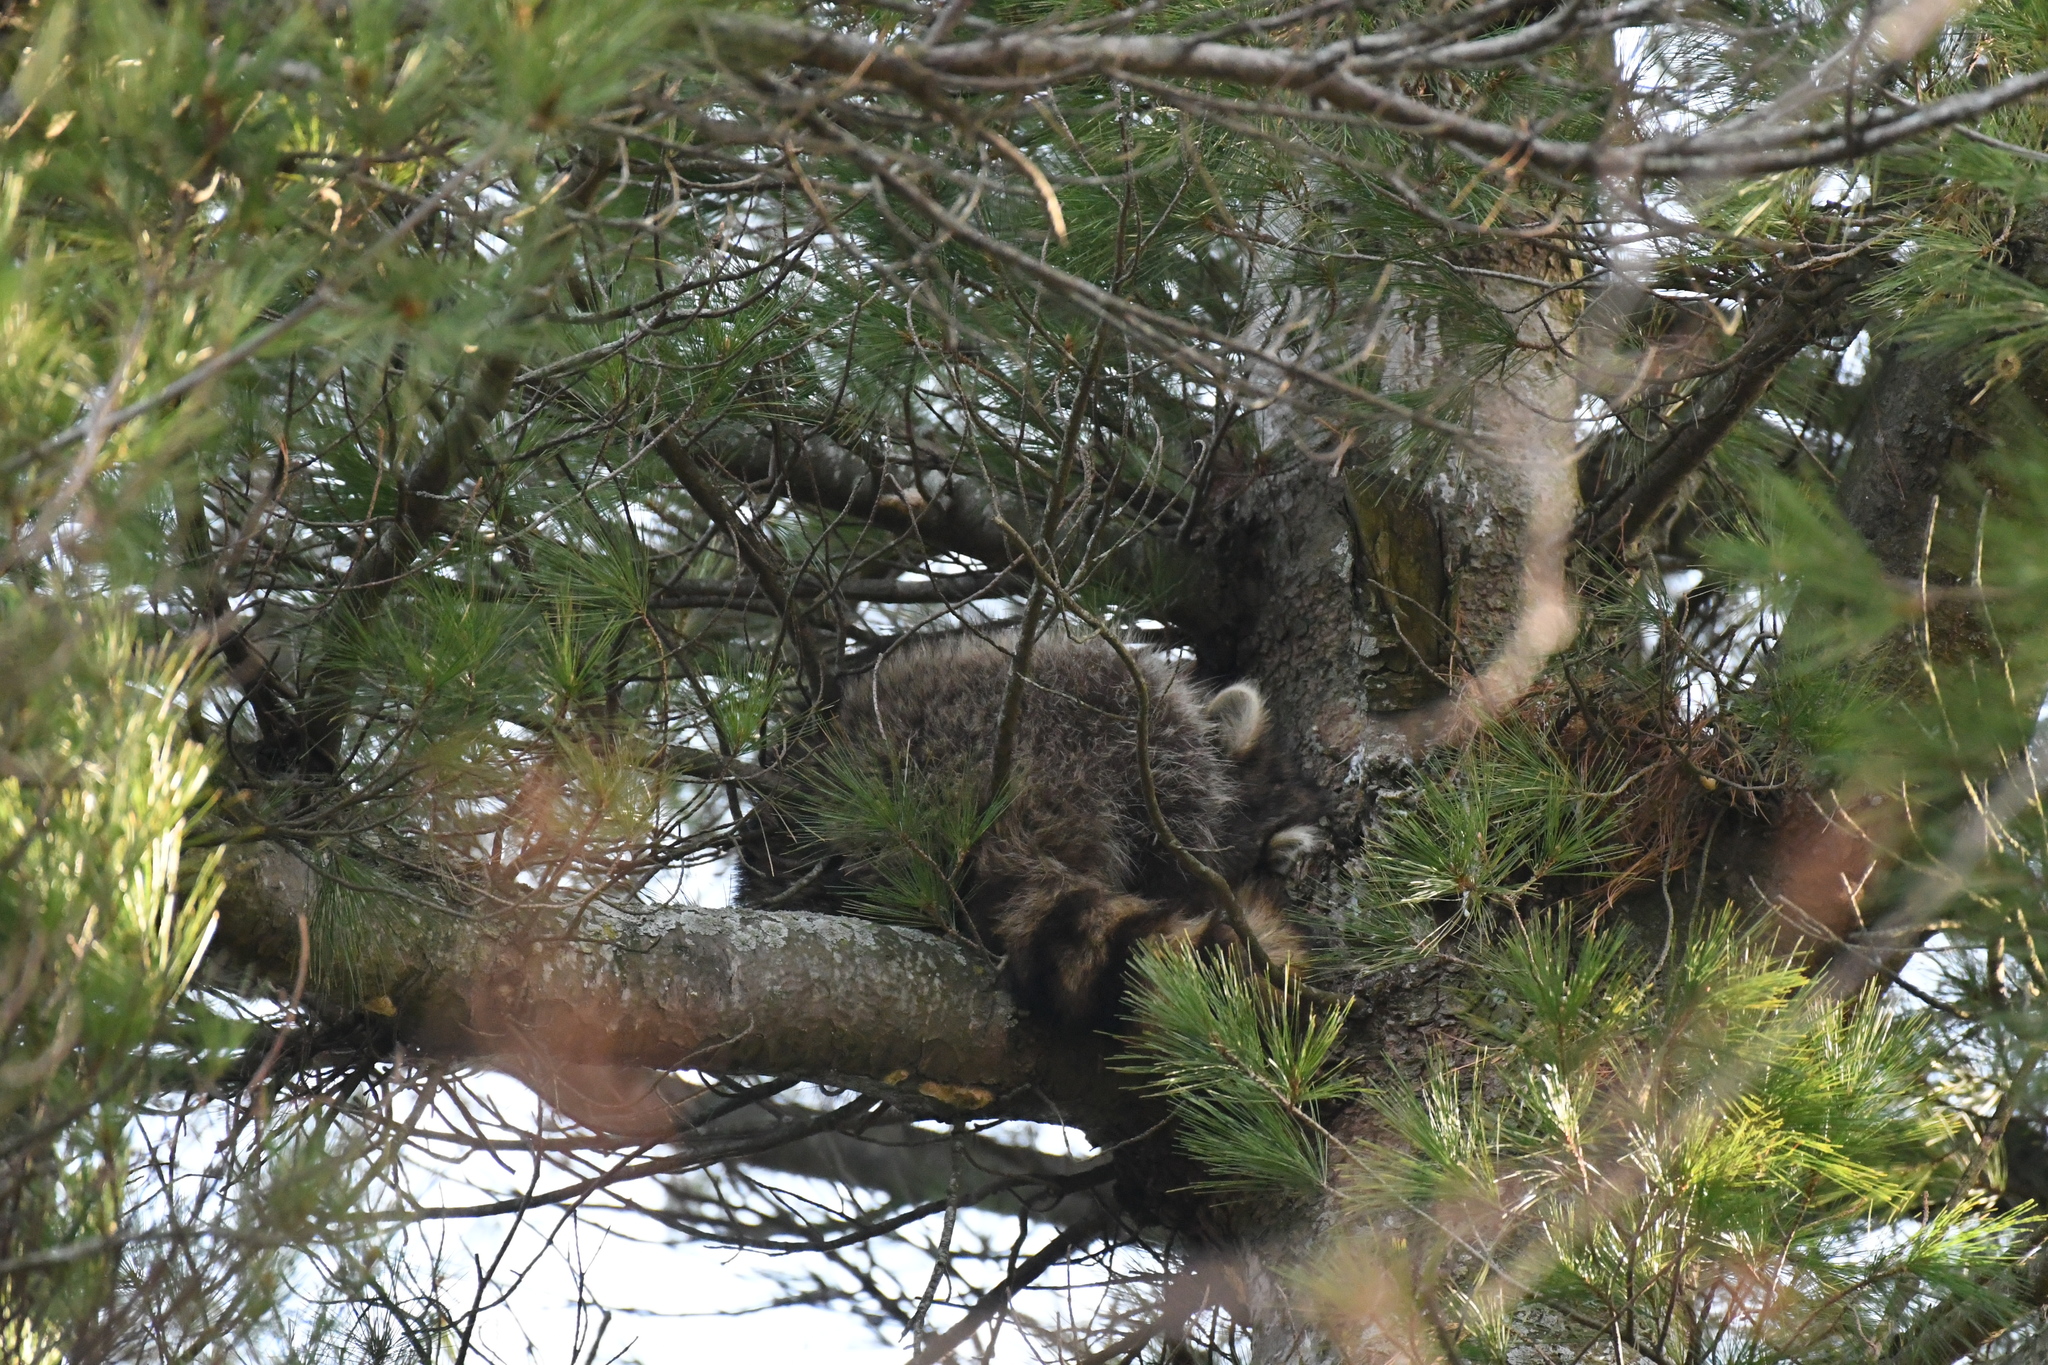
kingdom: Animalia
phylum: Chordata
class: Mammalia
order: Carnivora
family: Procyonidae
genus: Procyon
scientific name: Procyon lotor
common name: Raccoon
